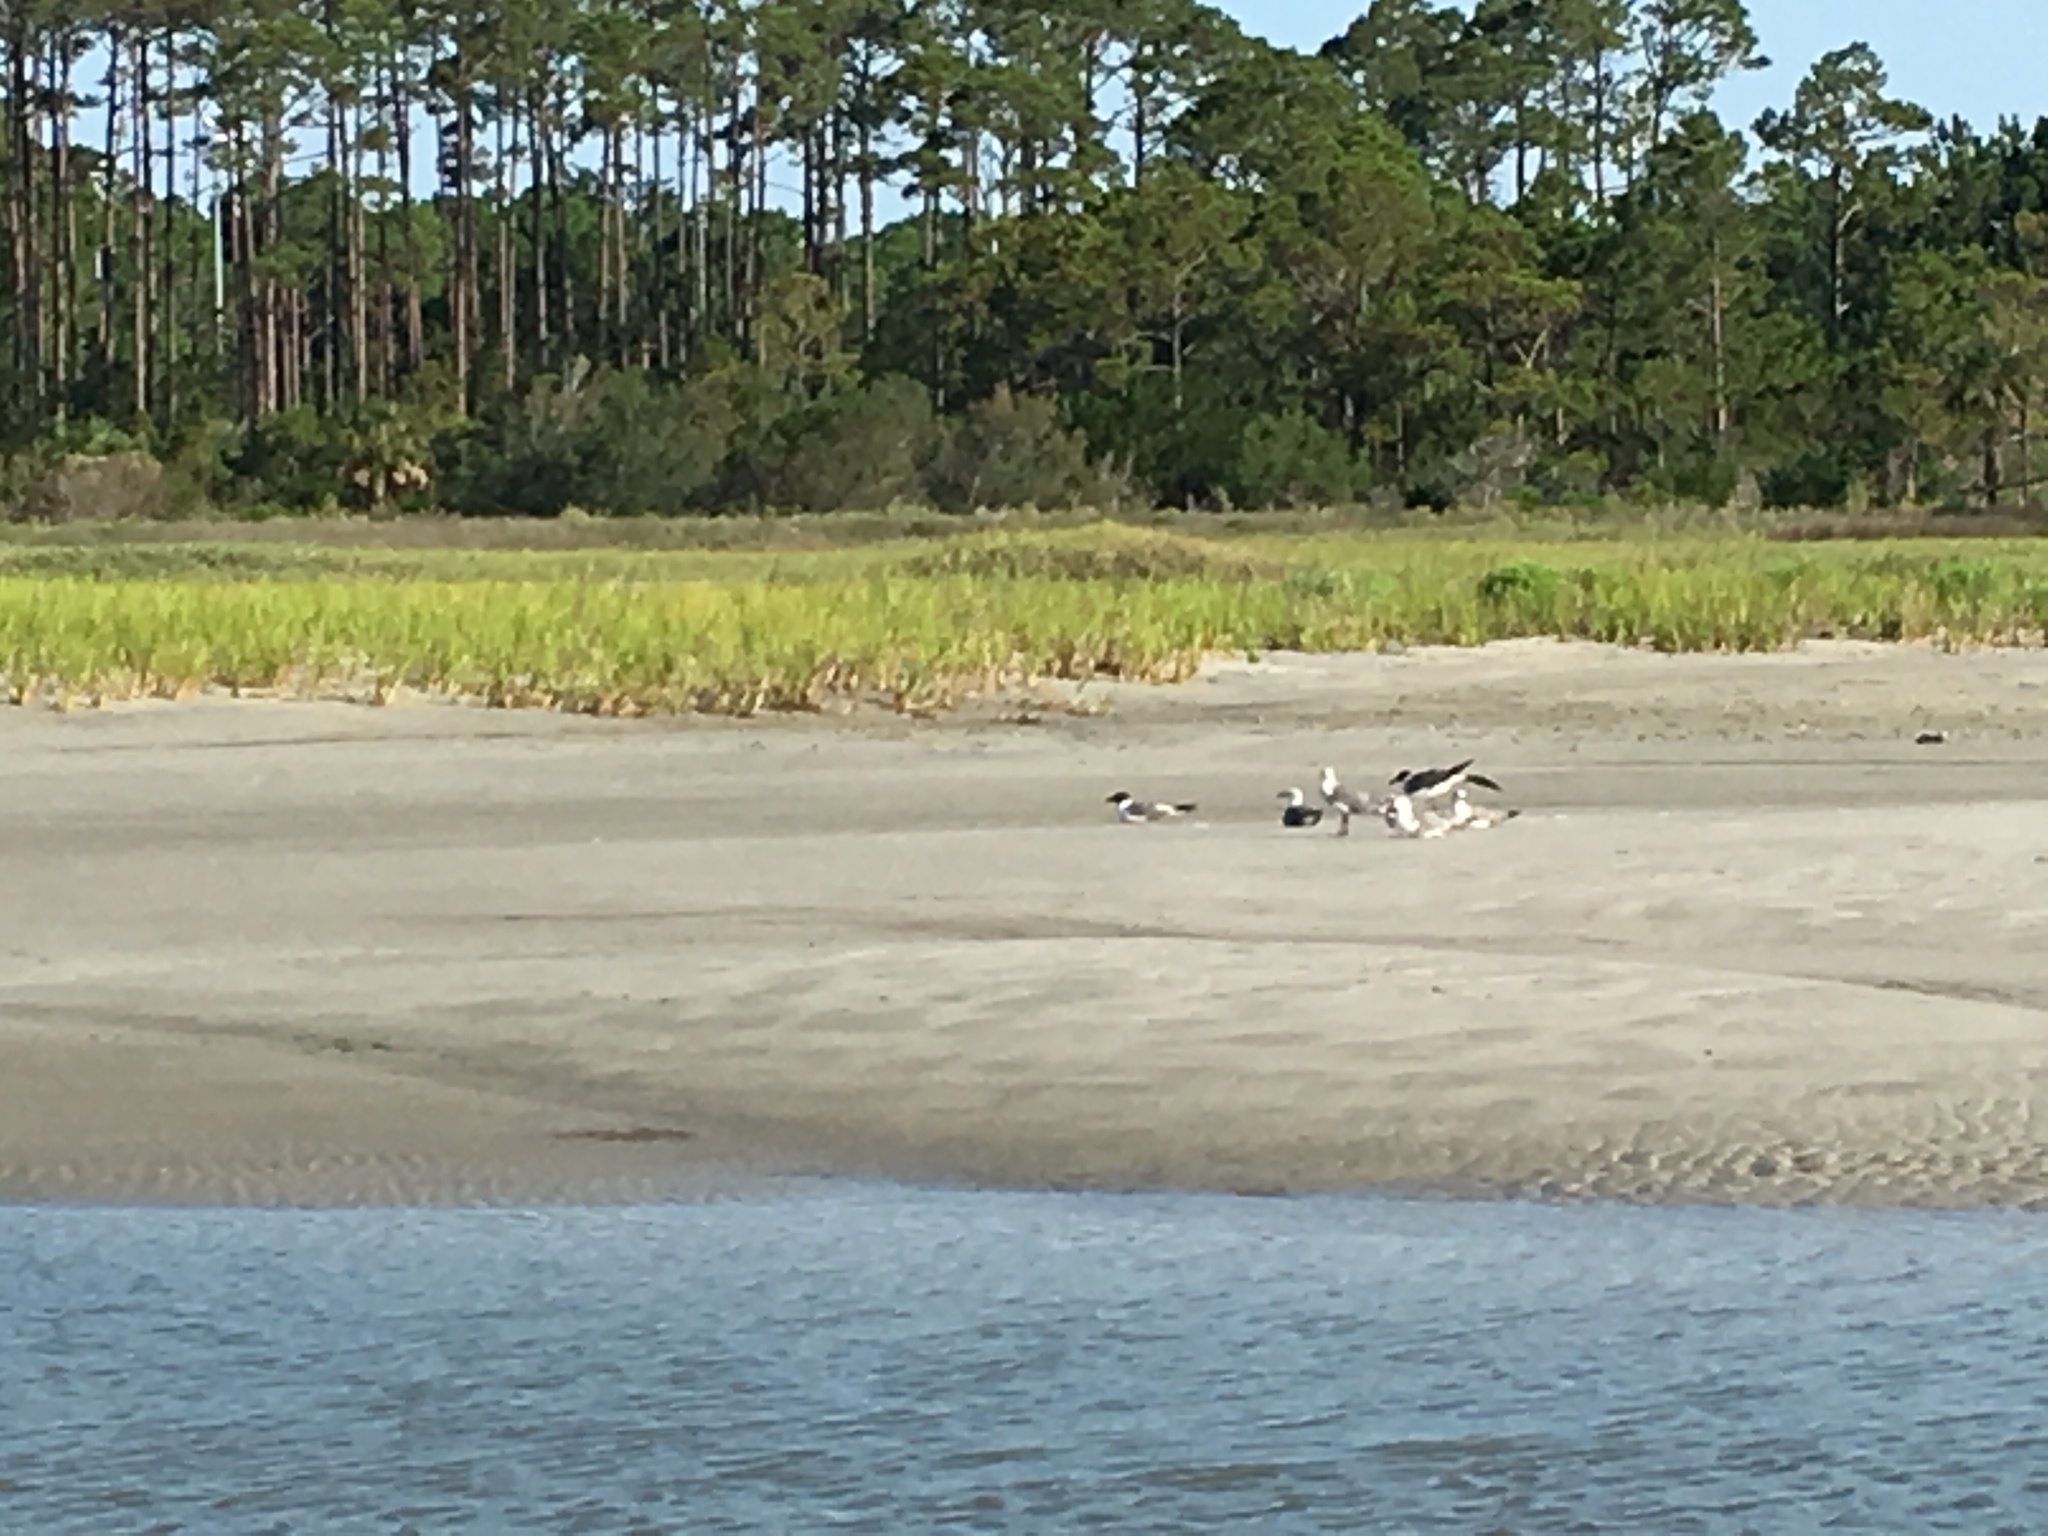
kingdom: Animalia
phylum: Chordata
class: Aves
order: Charadriiformes
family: Laridae
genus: Leucophaeus
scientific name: Leucophaeus atricilla
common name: Laughing gull
